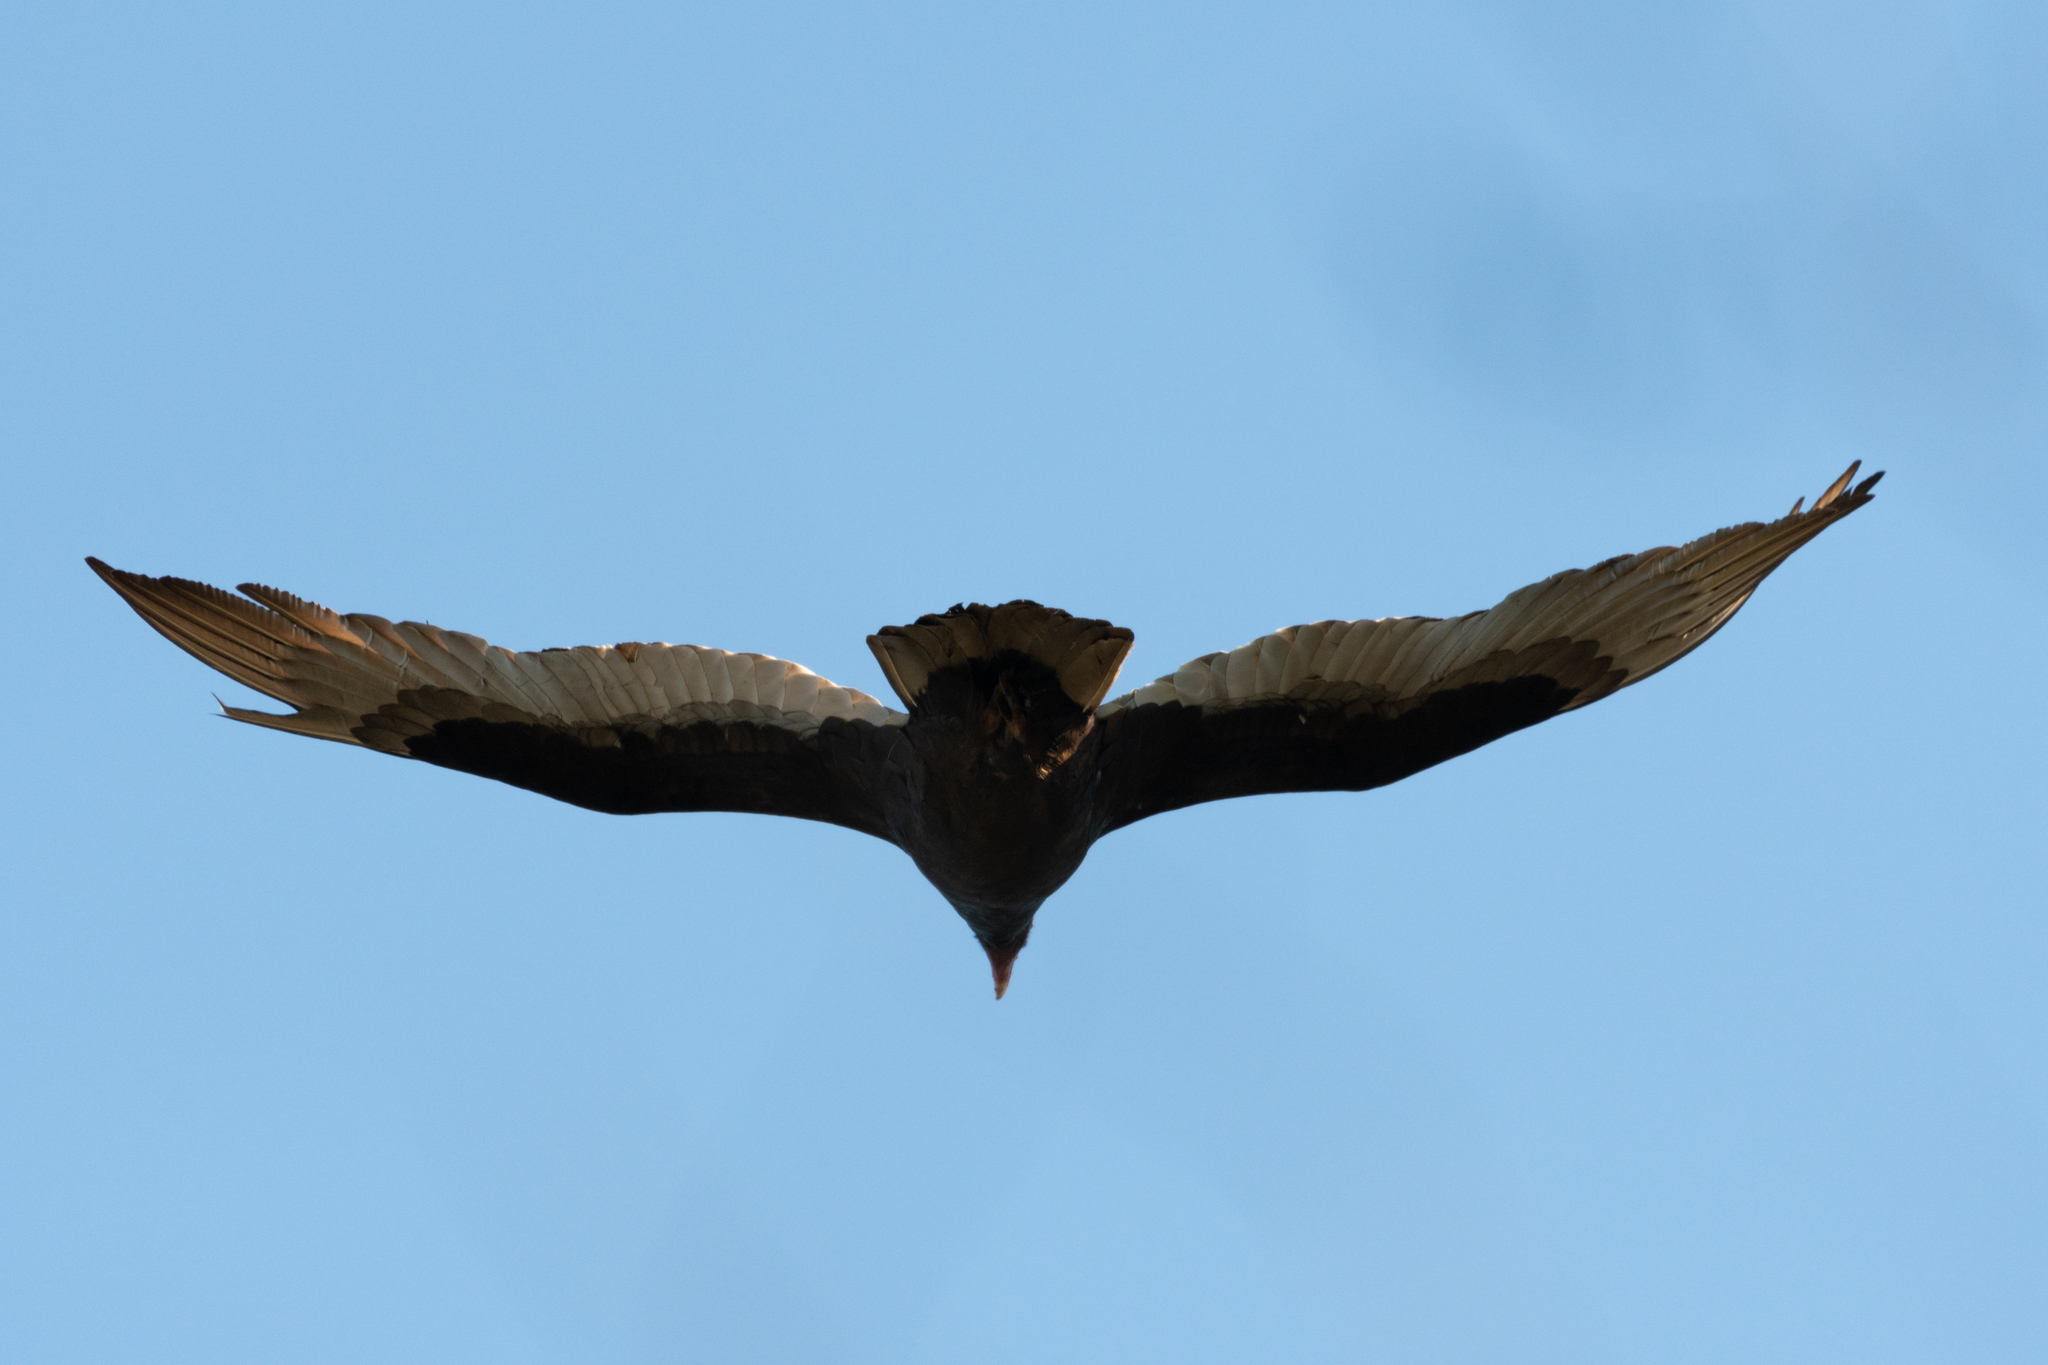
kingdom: Animalia
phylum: Chordata
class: Aves
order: Accipitriformes
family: Cathartidae
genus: Cathartes
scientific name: Cathartes aura
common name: Turkey vulture
